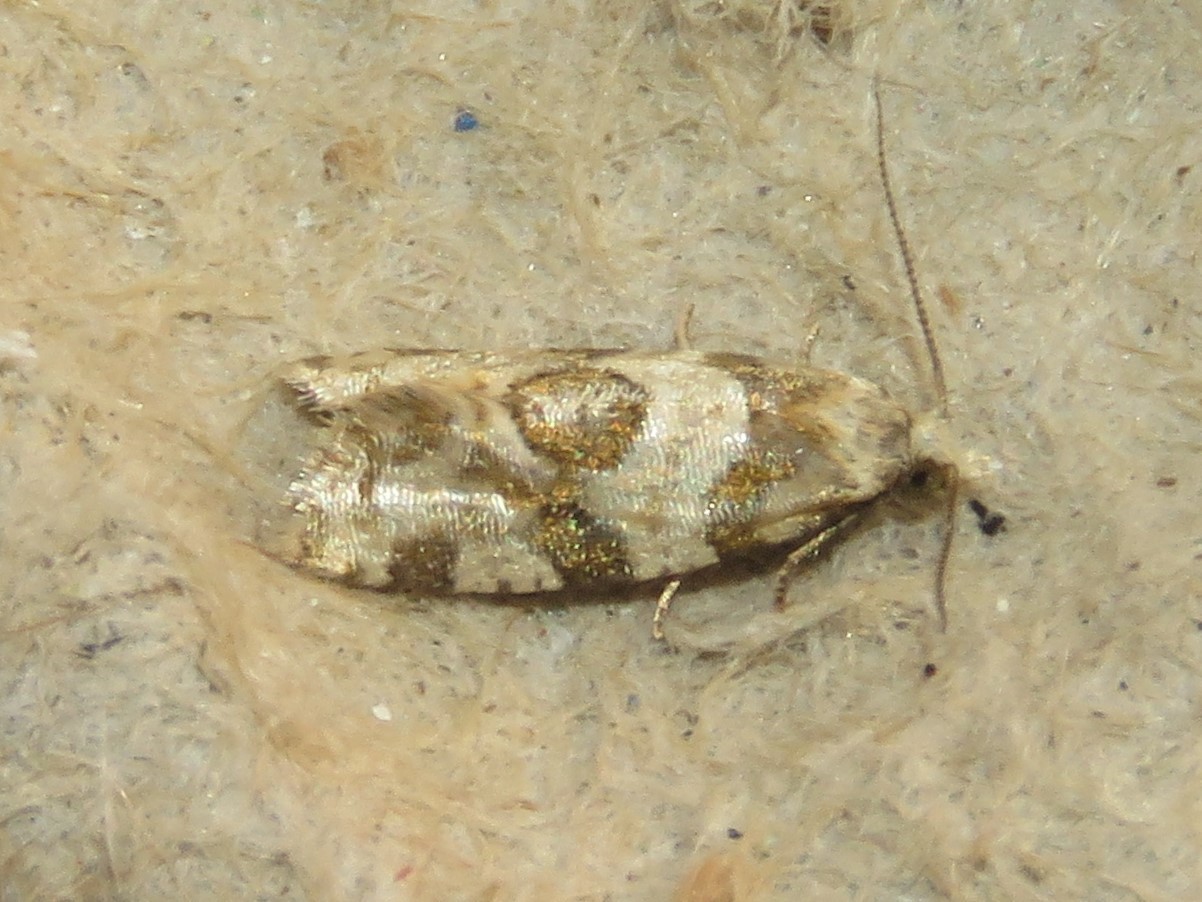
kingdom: Animalia
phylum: Arthropoda
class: Insecta
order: Lepidoptera
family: Tortricidae
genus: Aethes
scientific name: Aethes argentilimitana
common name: Silver-bordered aethes
